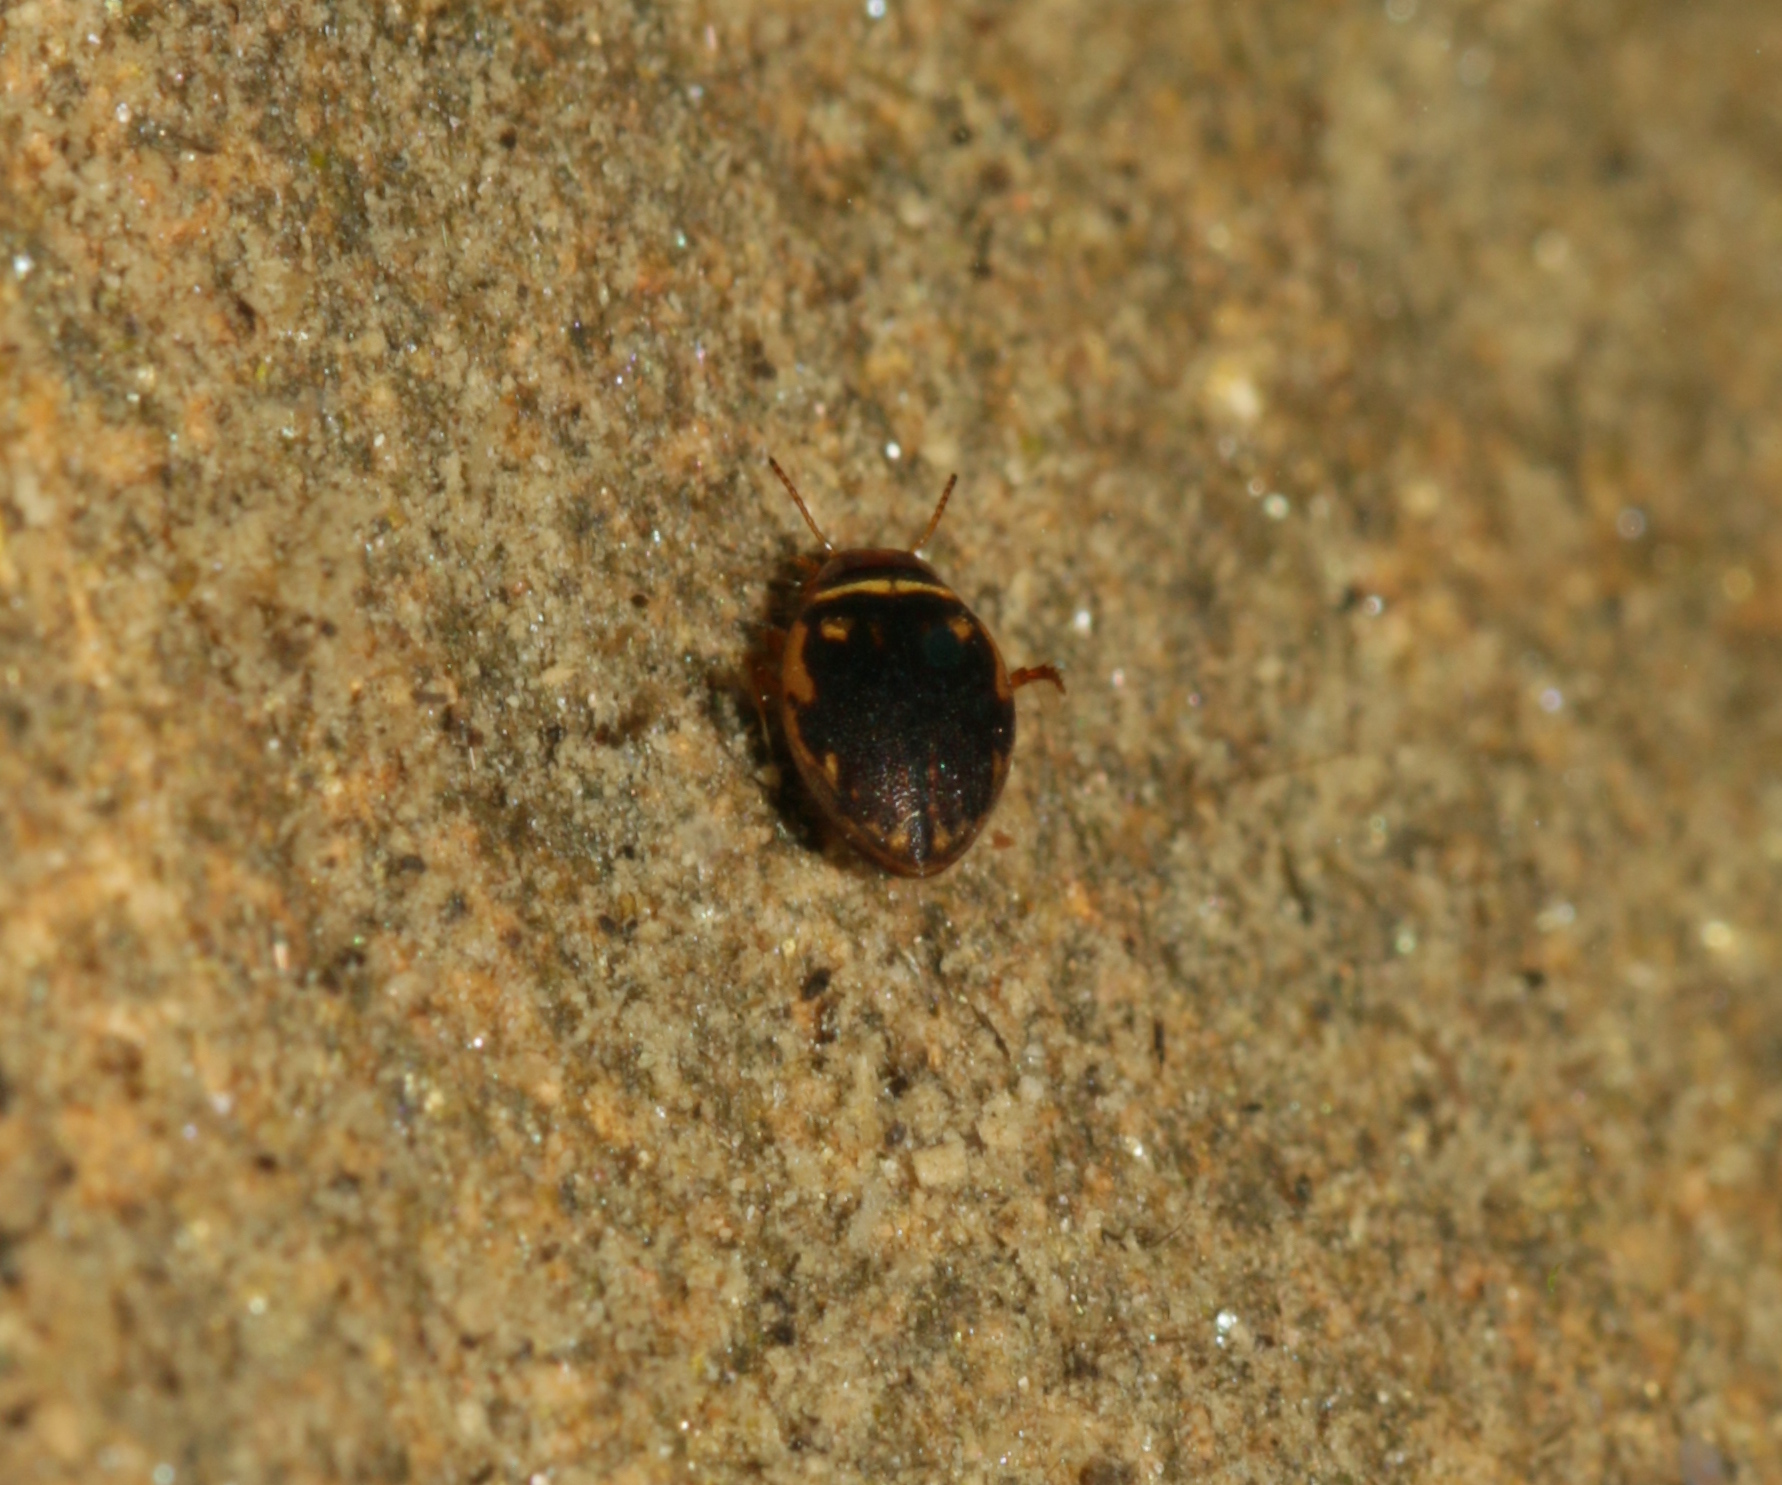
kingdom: Animalia
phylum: Arthropoda
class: Insecta
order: Coleoptera
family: Dytiscidae
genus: Hygrotus
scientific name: Hygrotus inaequalis
